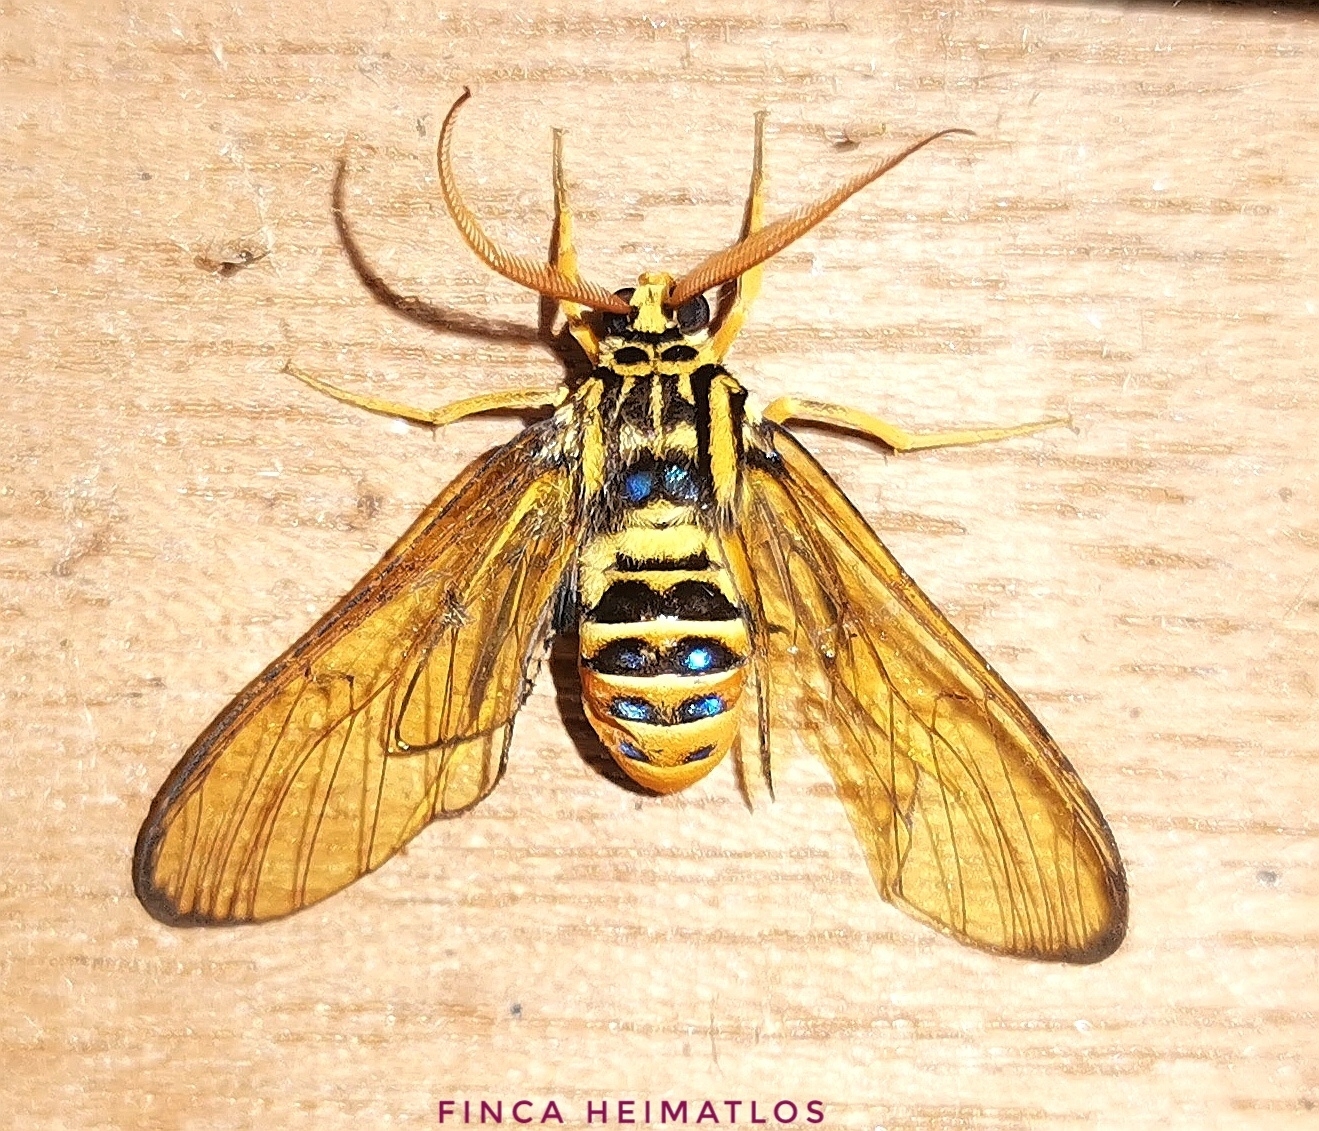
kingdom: Animalia
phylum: Arthropoda
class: Insecta
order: Lepidoptera
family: Erebidae
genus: Gymnelia
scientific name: Gymnelia villia
